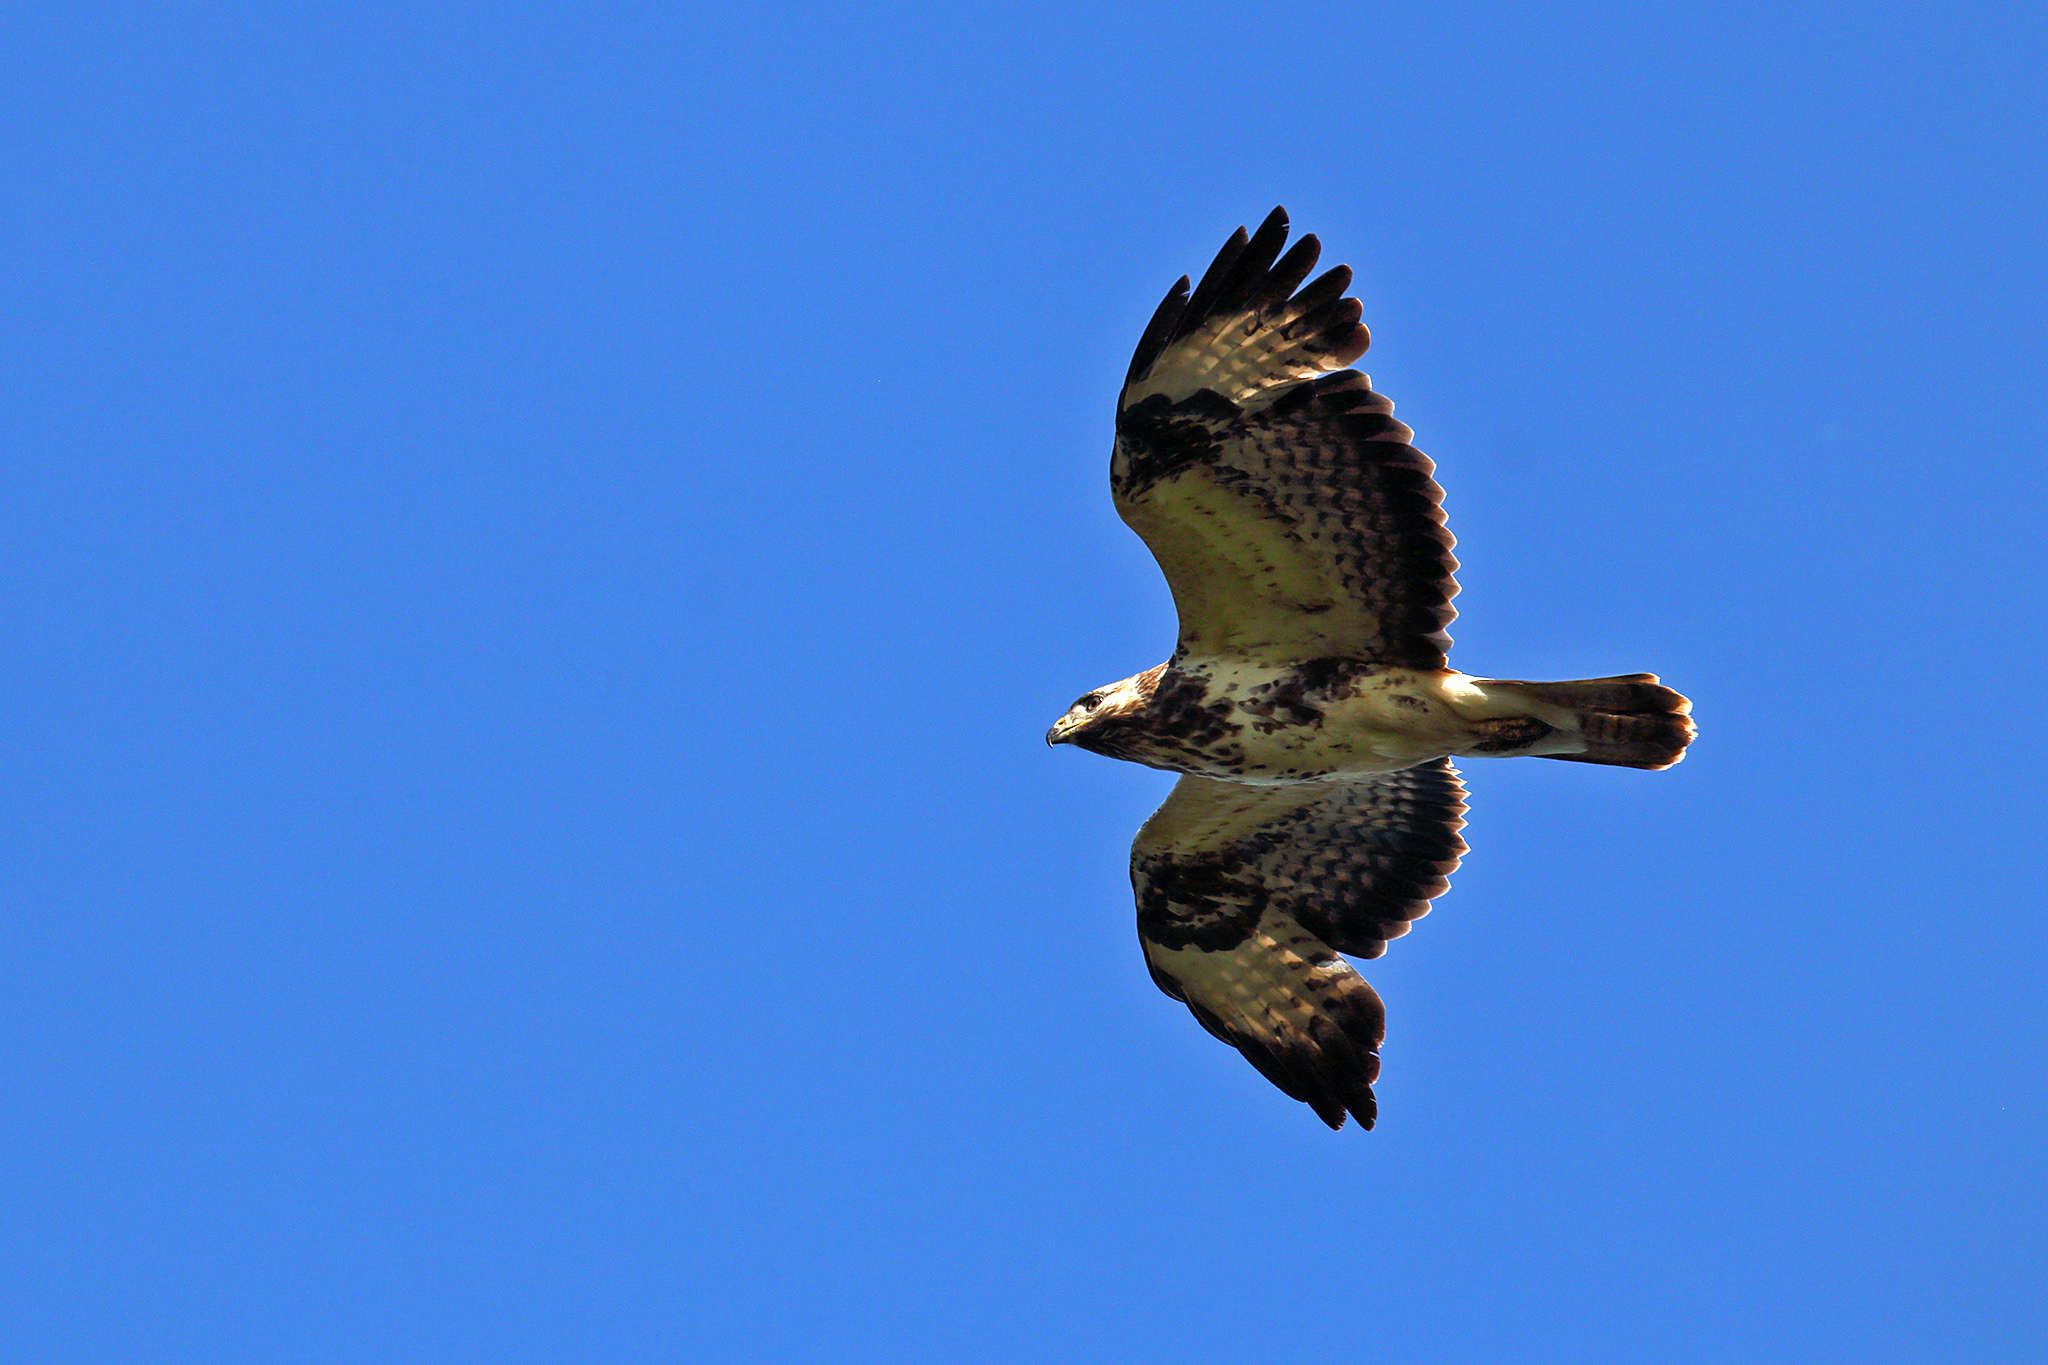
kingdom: Animalia
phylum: Chordata
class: Aves
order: Accipitriformes
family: Accipitridae
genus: Buteo
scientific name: Buteo buteo
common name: Common buzzard
